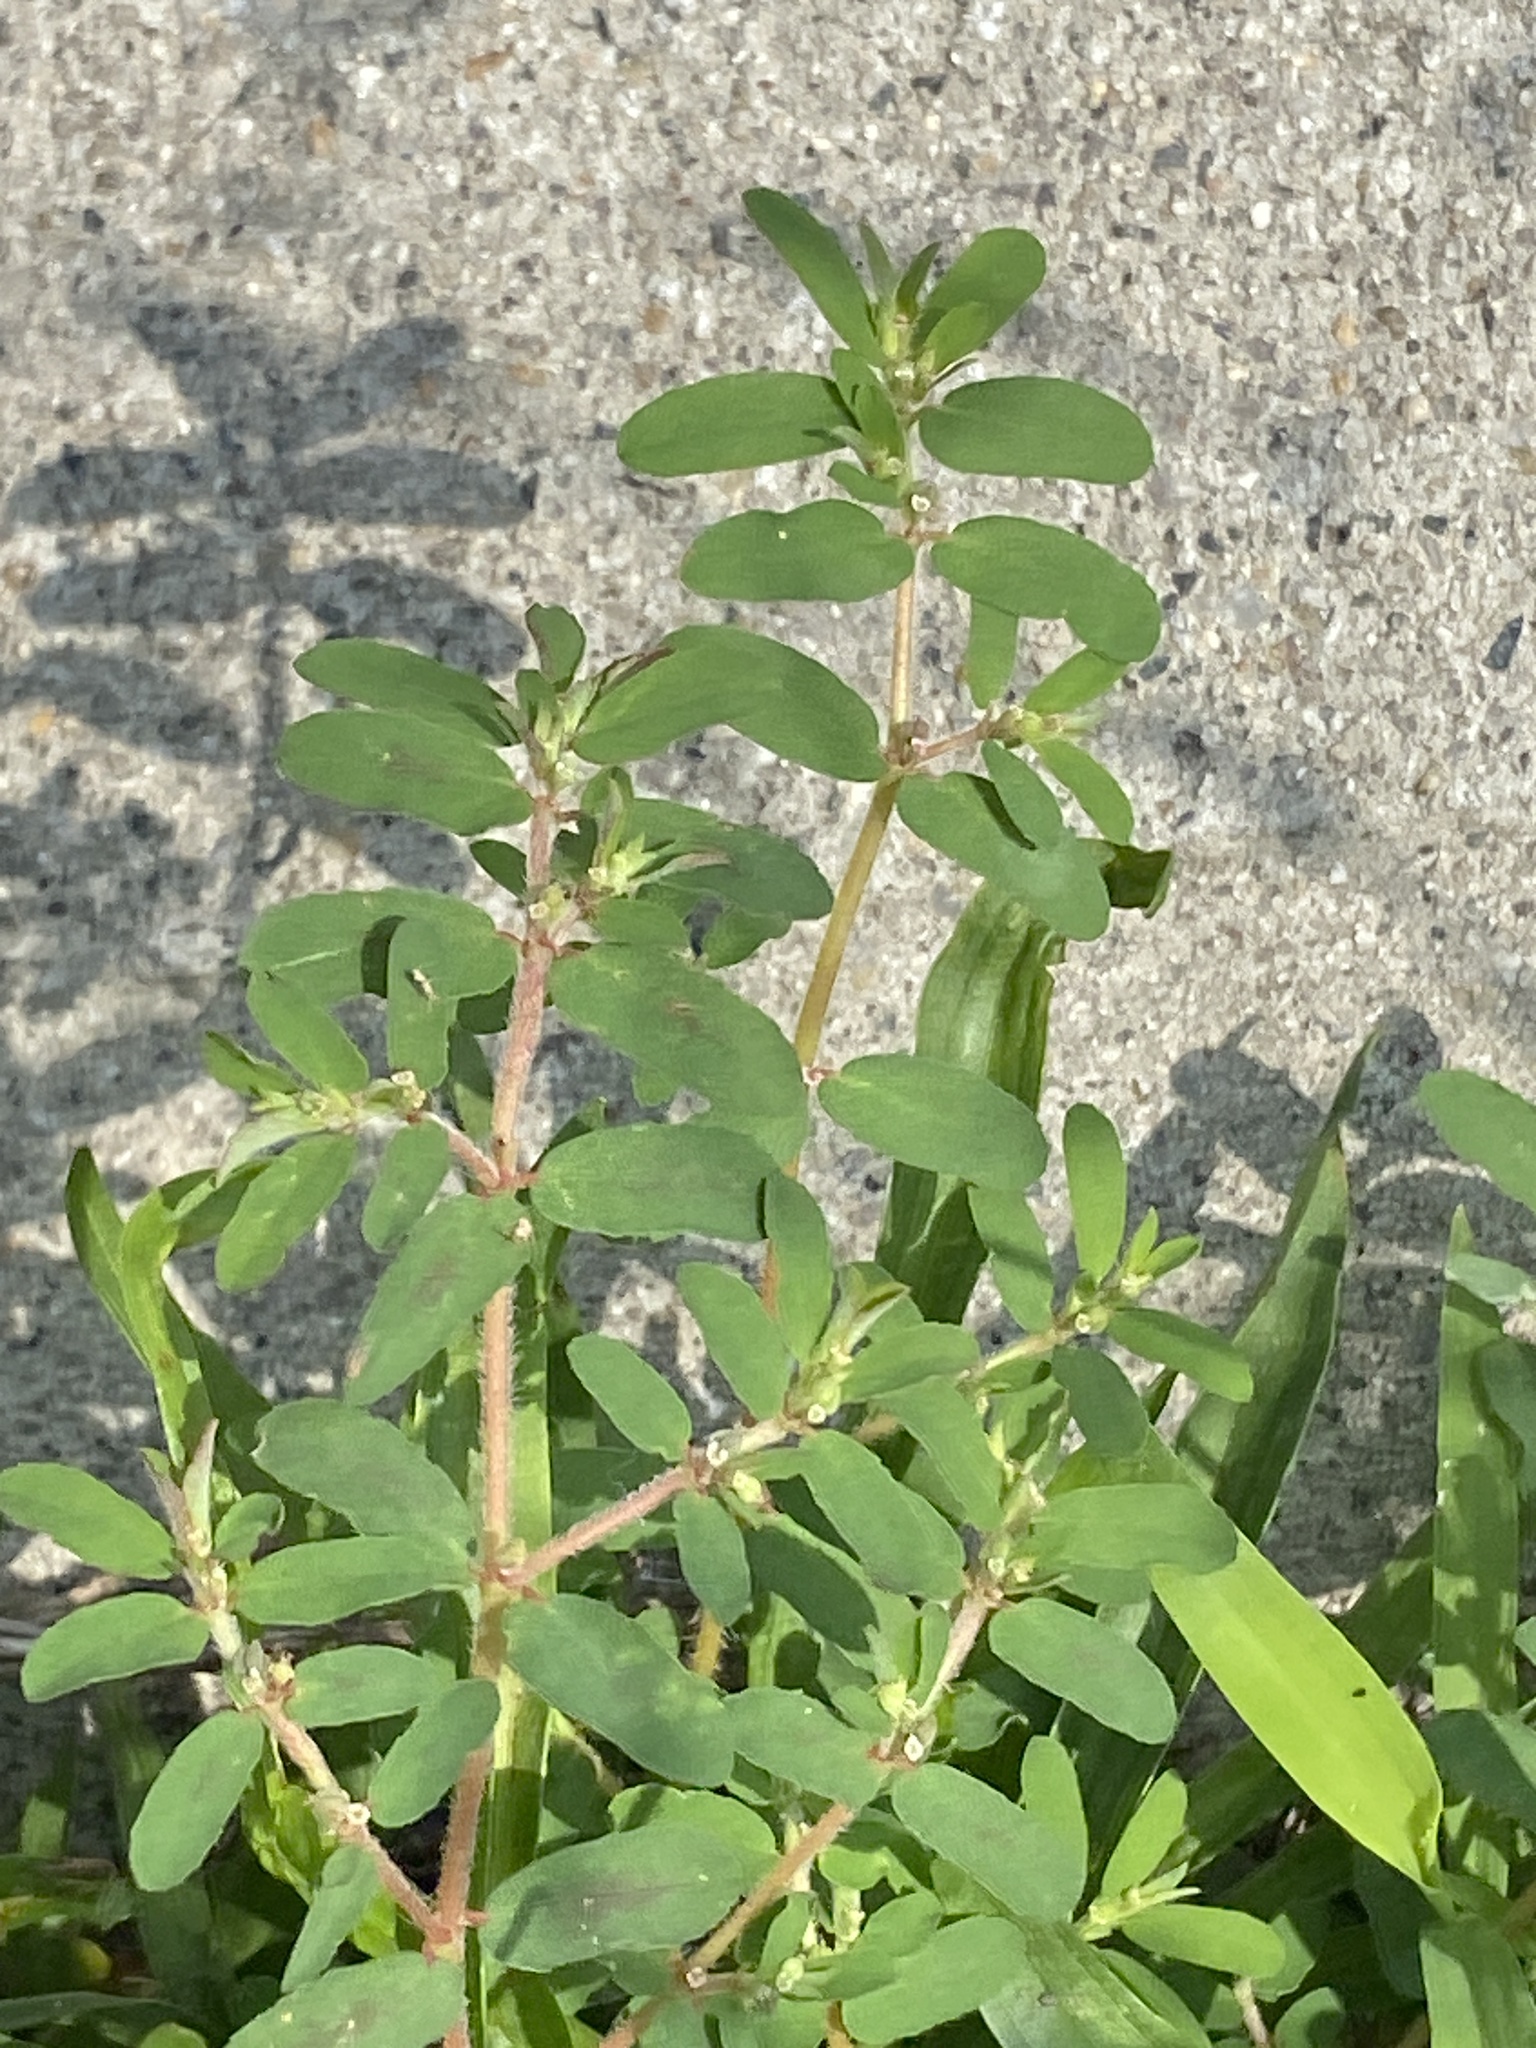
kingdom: Plantae
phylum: Tracheophyta
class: Magnoliopsida
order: Malpighiales
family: Euphorbiaceae
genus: Euphorbia
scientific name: Euphorbia maculata
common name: Spotted spurge
